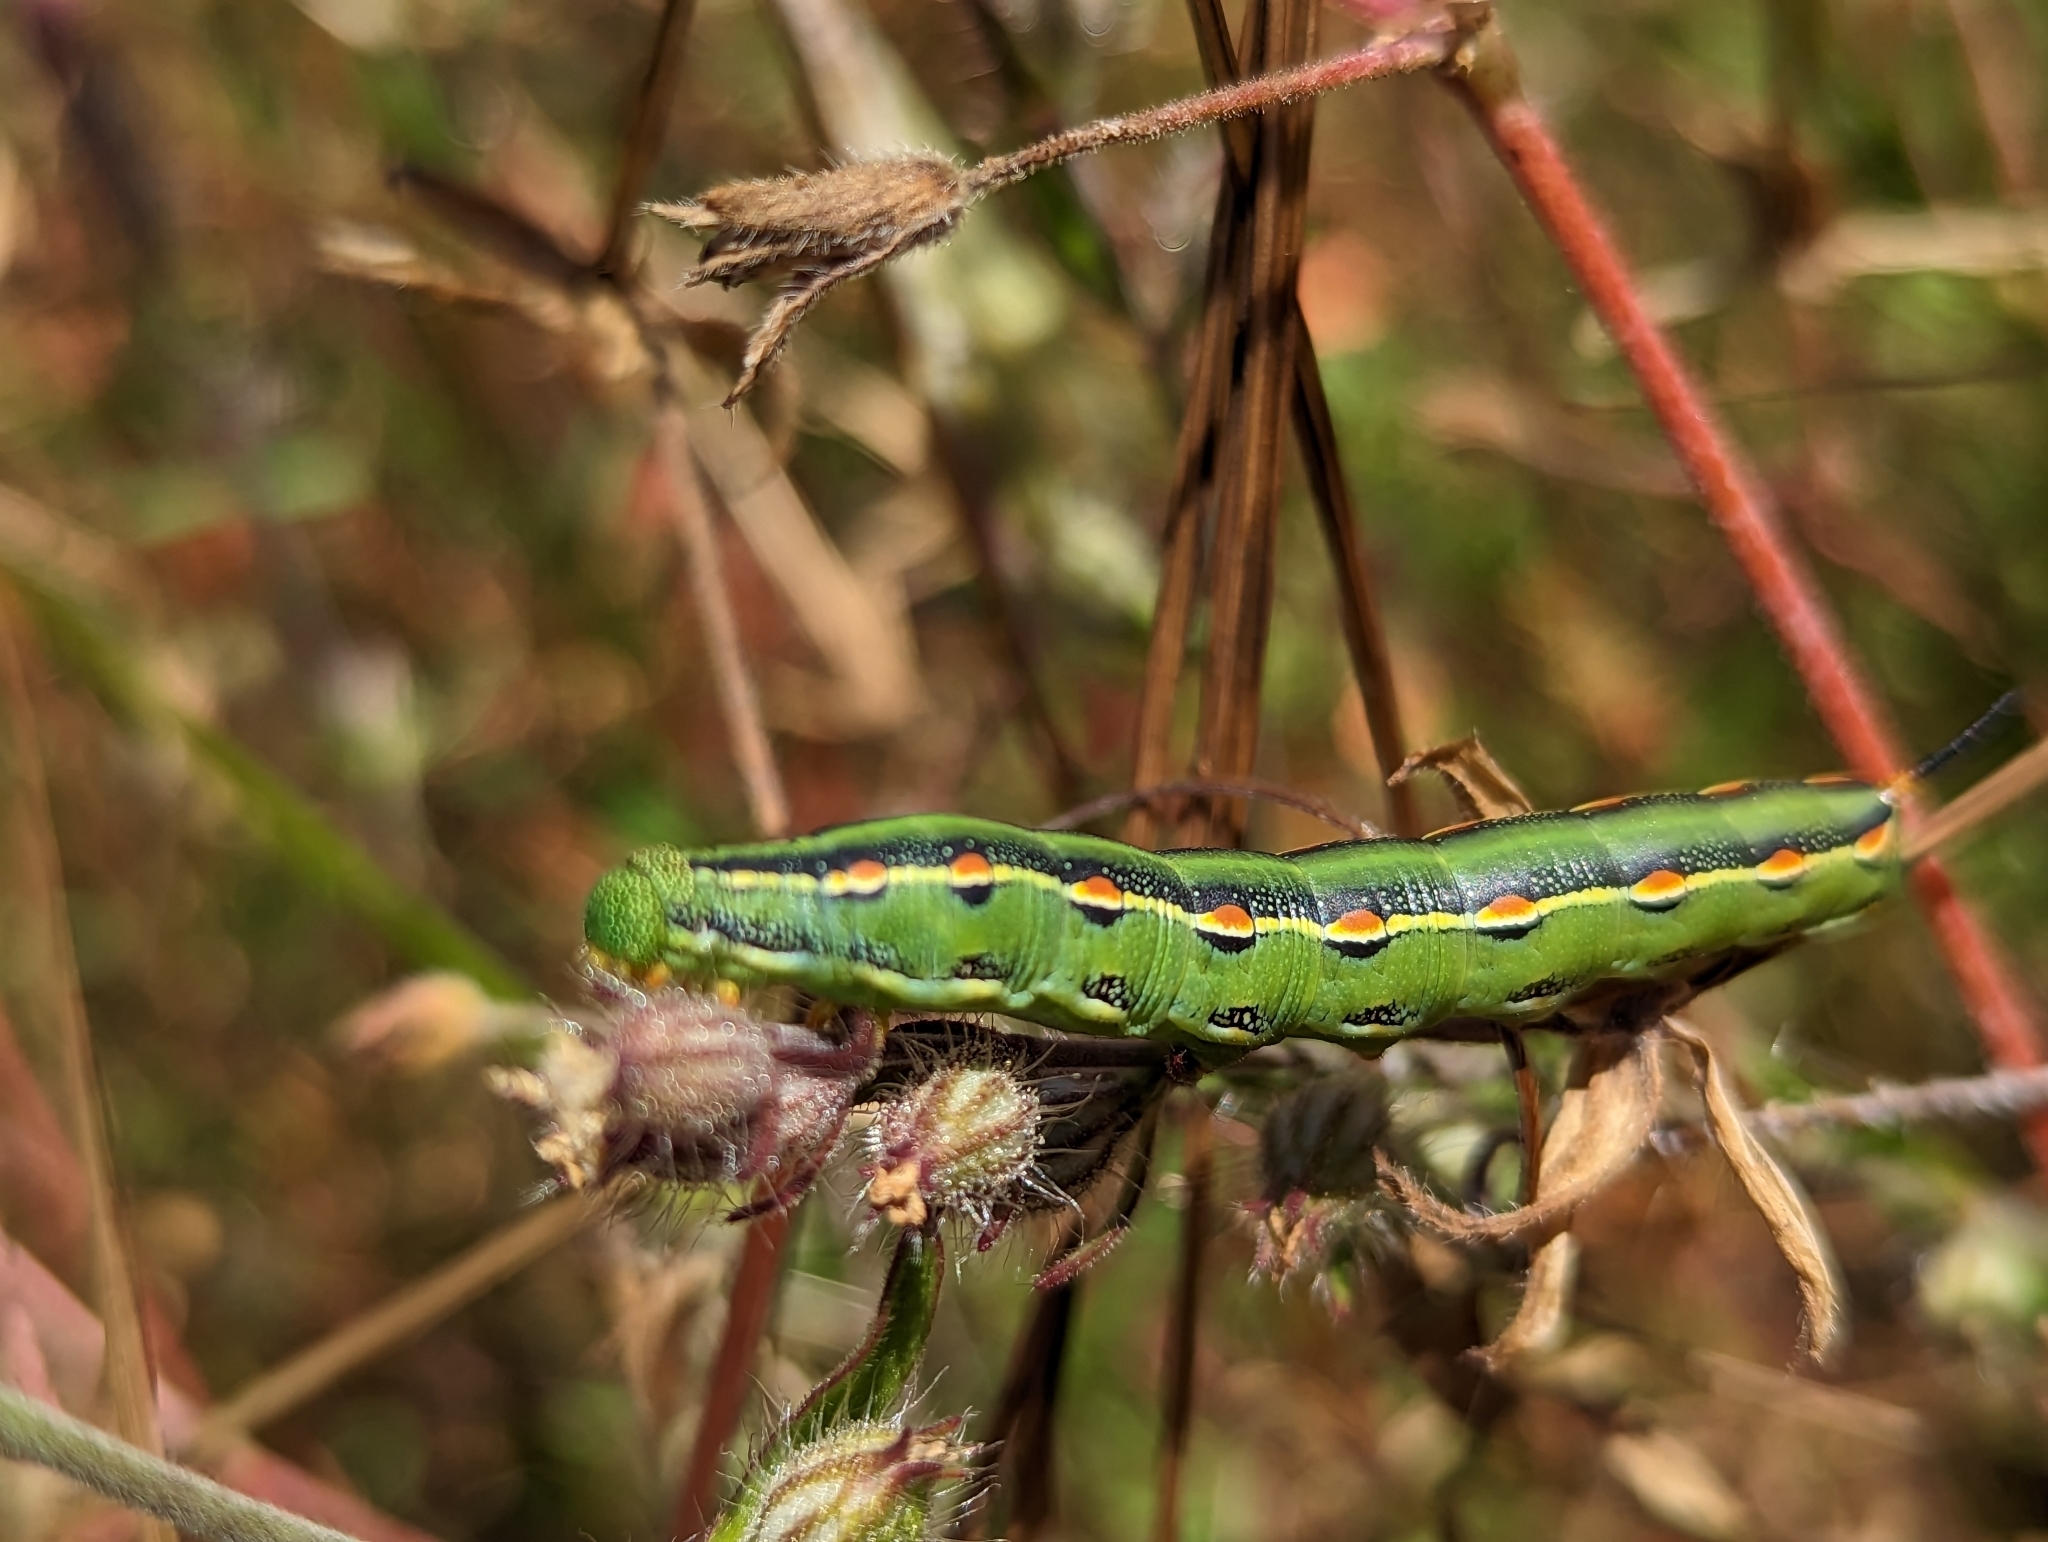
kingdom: Animalia
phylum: Arthropoda
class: Insecta
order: Lepidoptera
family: Sphingidae
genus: Hyles
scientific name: Hyles lineata
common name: White-lined sphinx
